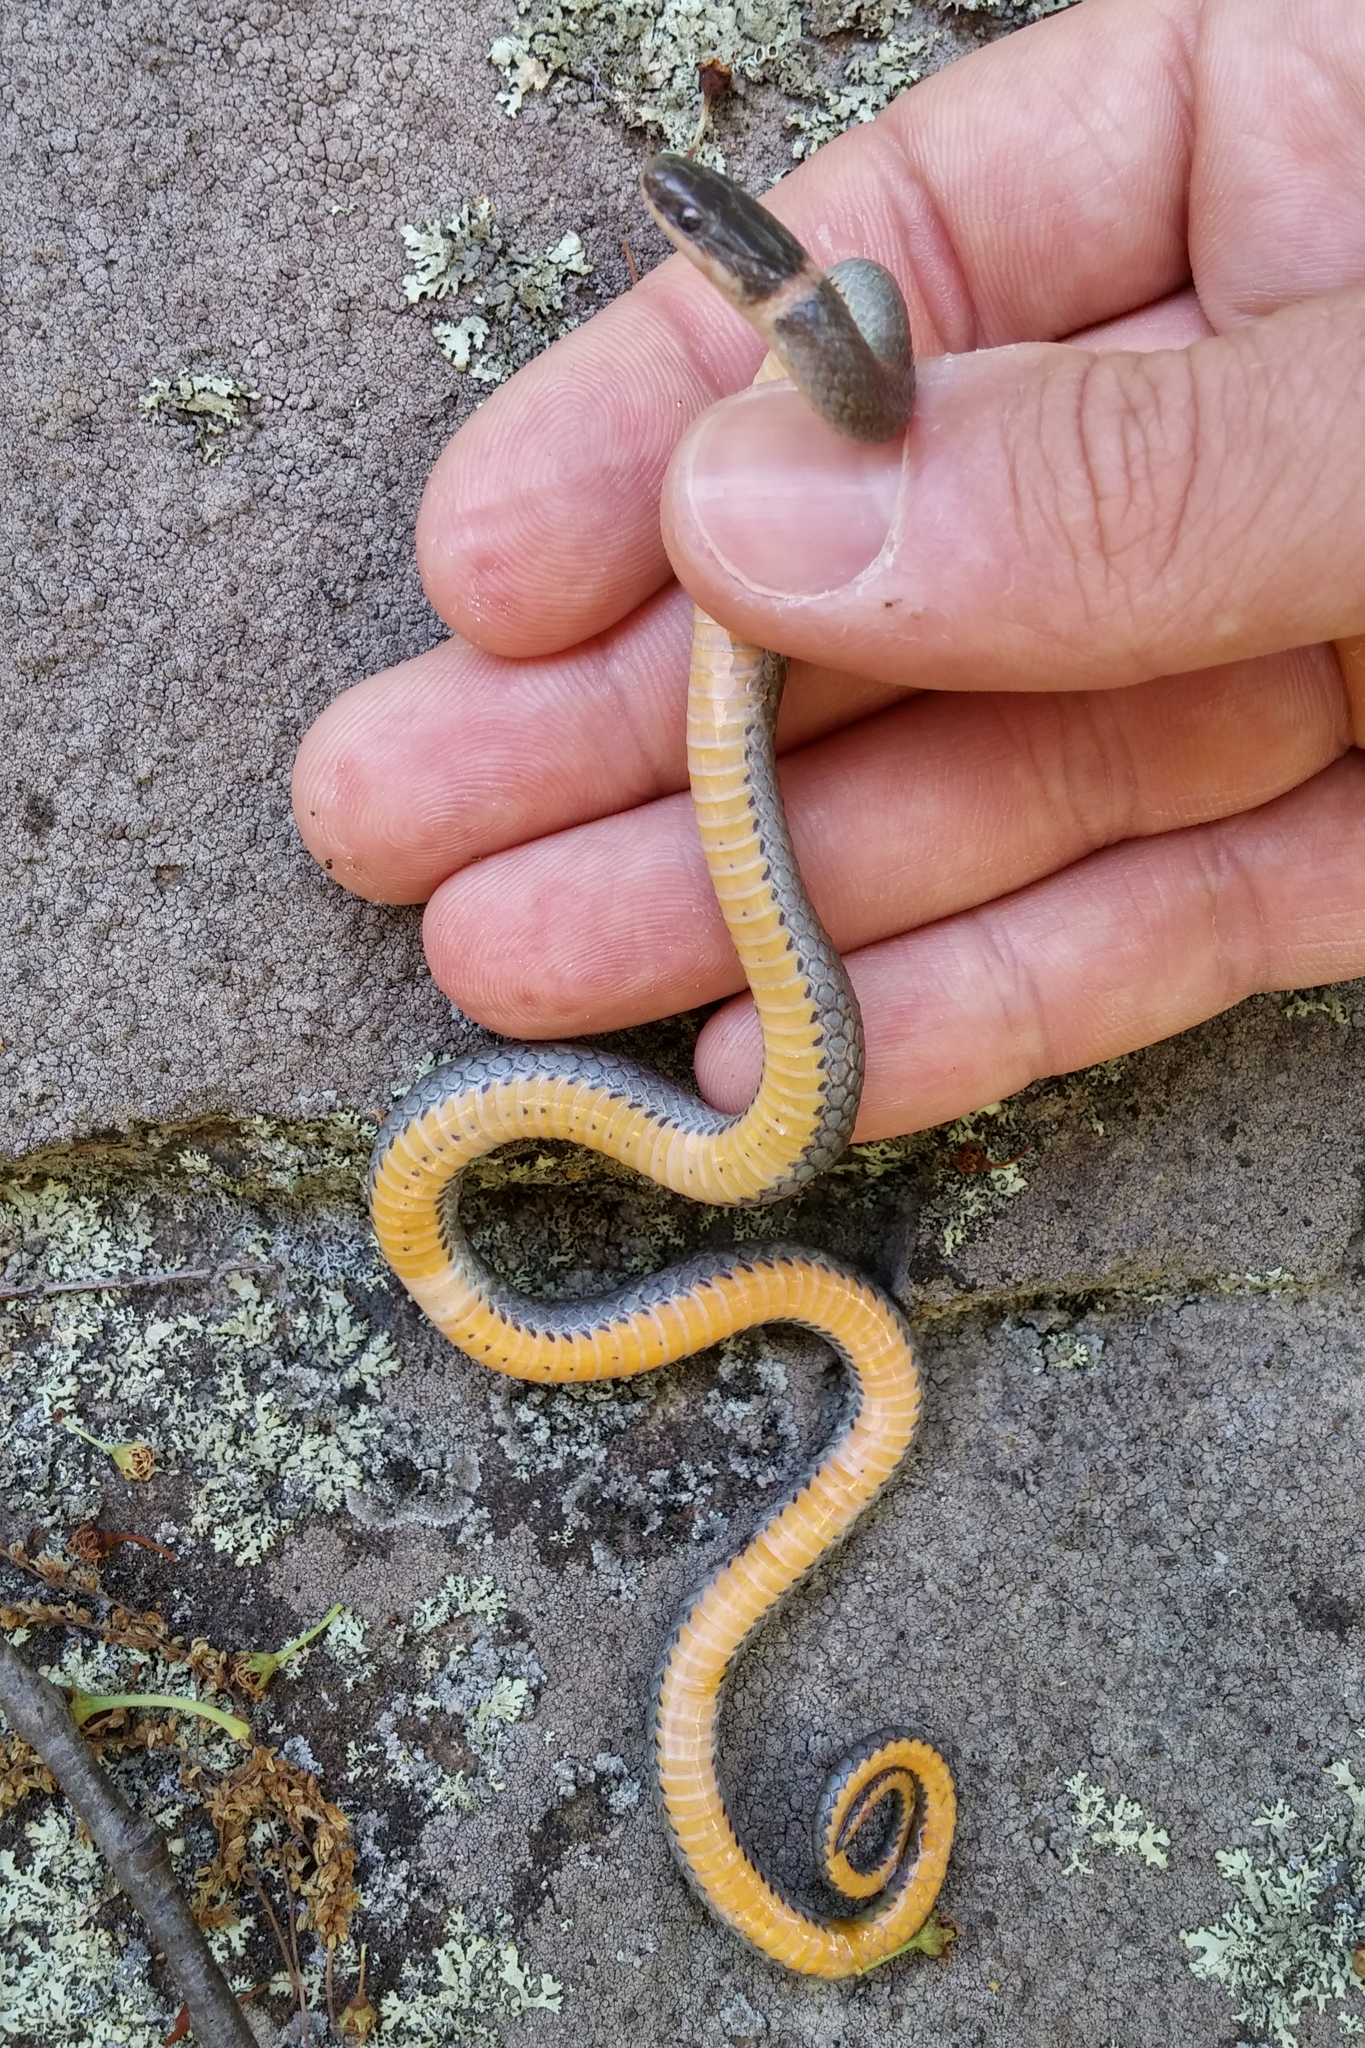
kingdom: Animalia
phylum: Chordata
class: Squamata
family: Colubridae
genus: Diadophis
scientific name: Diadophis punctatus
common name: Ringneck snake
